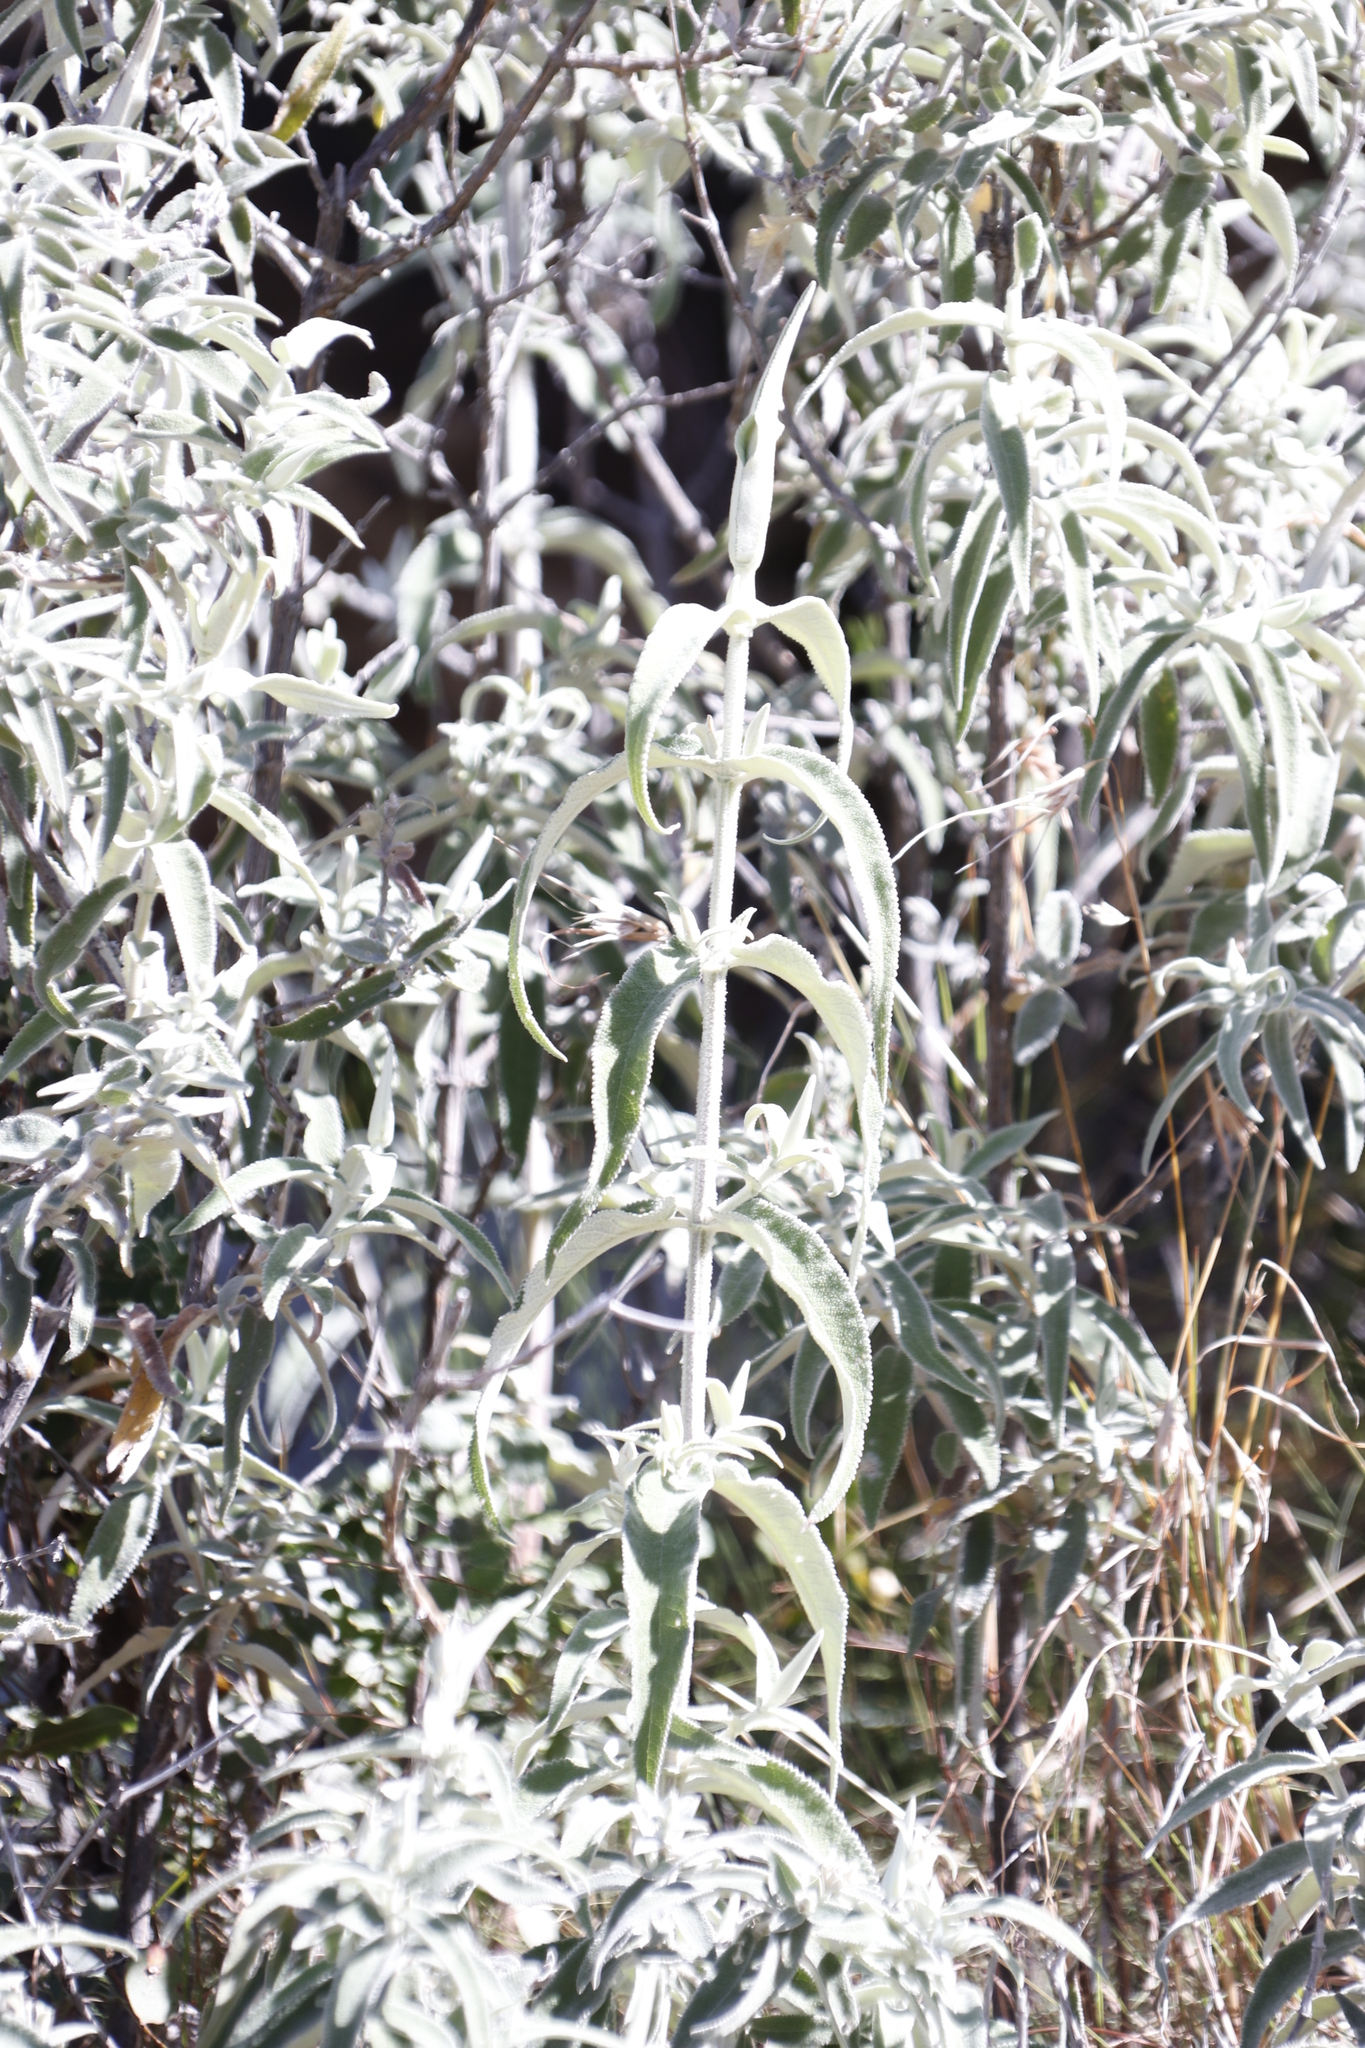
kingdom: Plantae
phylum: Tracheophyta
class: Magnoliopsida
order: Lamiales
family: Scrophulariaceae
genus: Buddleja
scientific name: Buddleja salviifolia
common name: Sagewood
